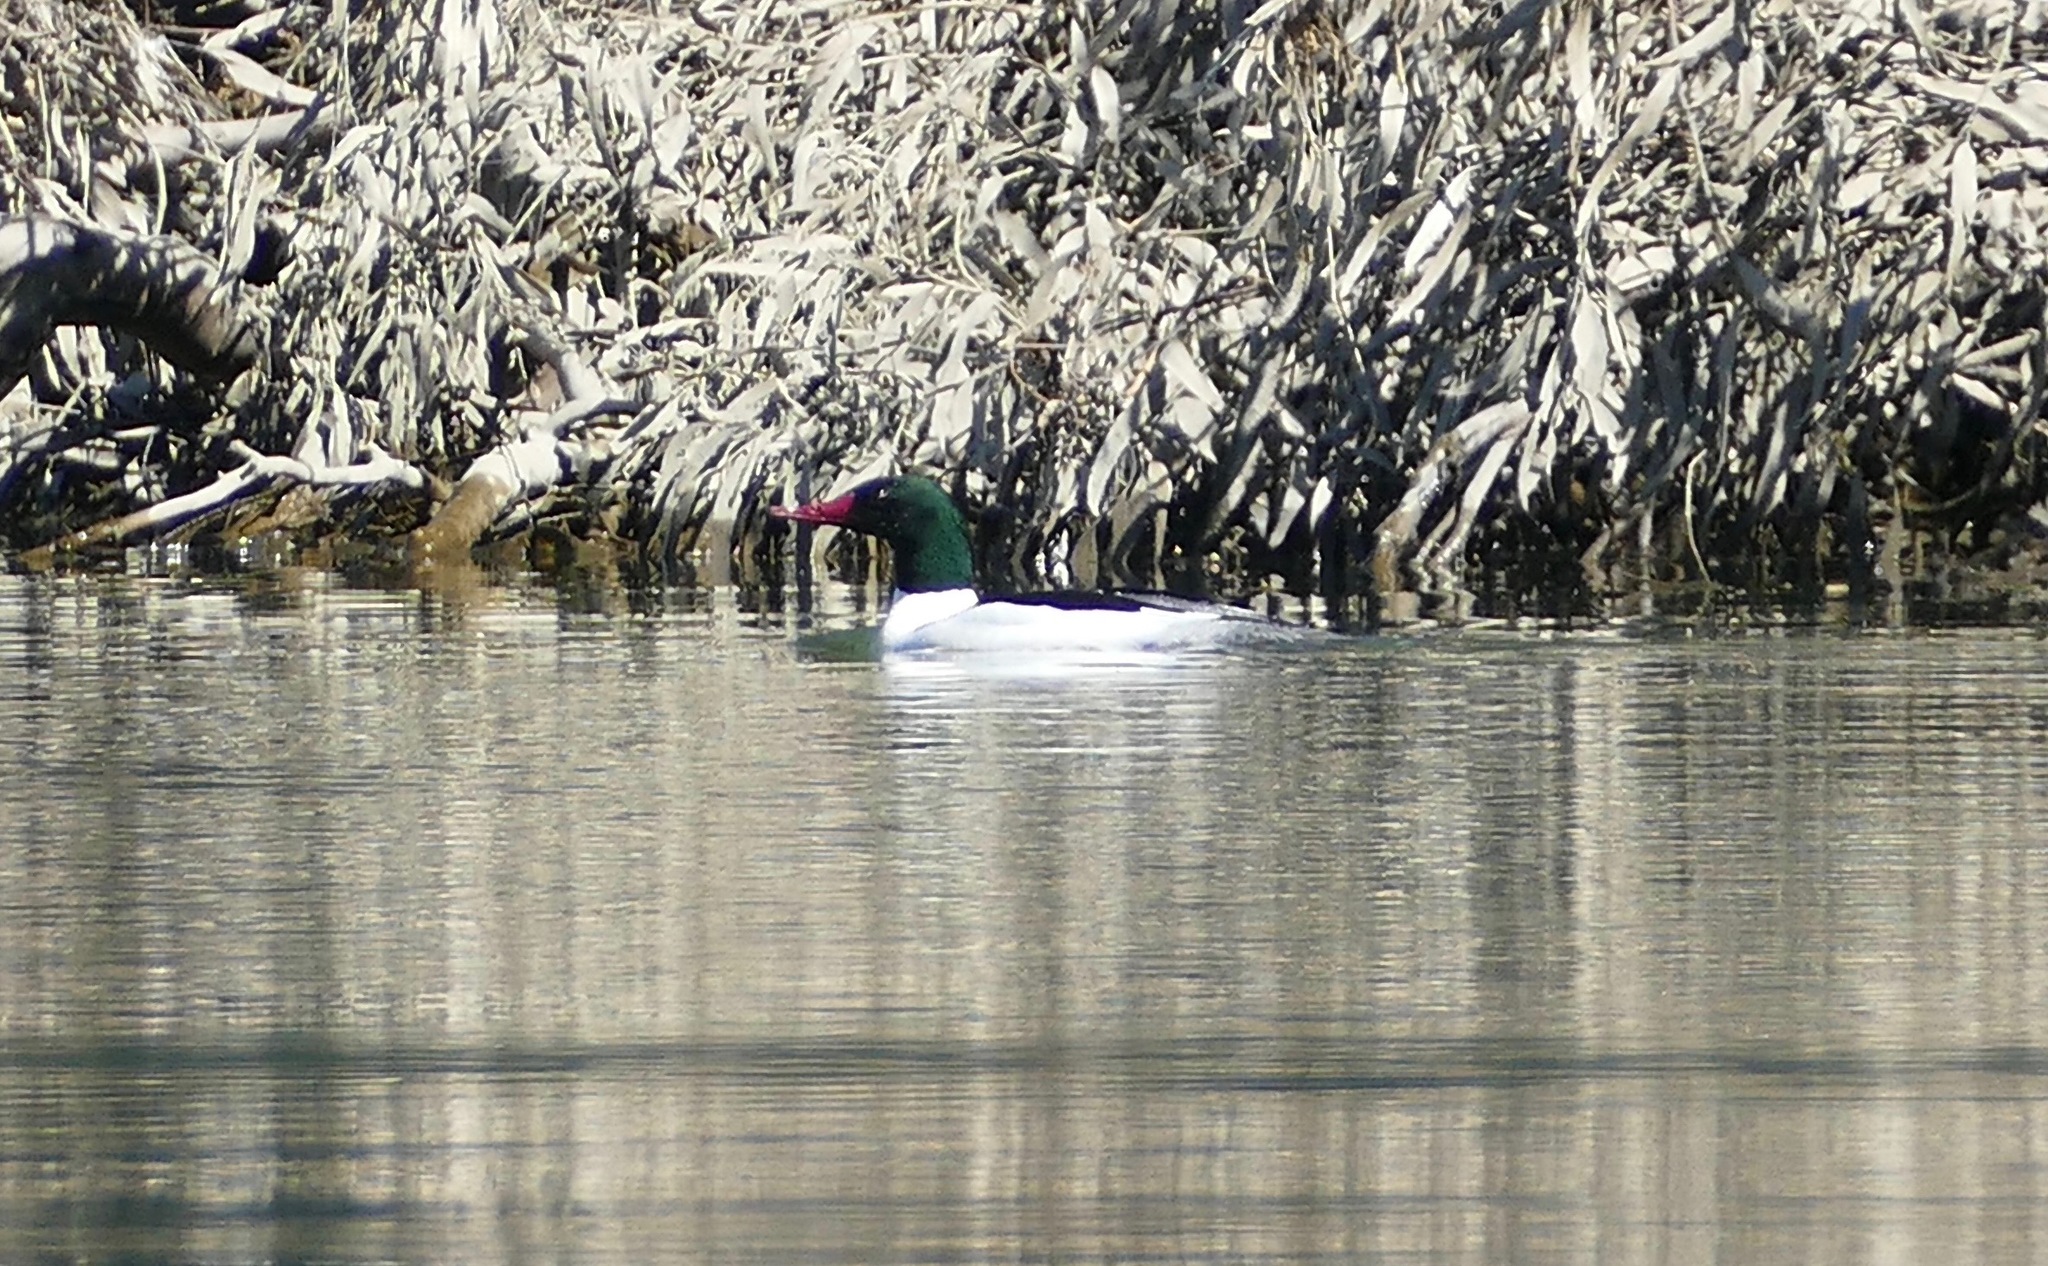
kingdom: Animalia
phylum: Chordata
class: Aves
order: Anseriformes
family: Anatidae
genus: Mergus
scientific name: Mergus merganser
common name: Common merganser
